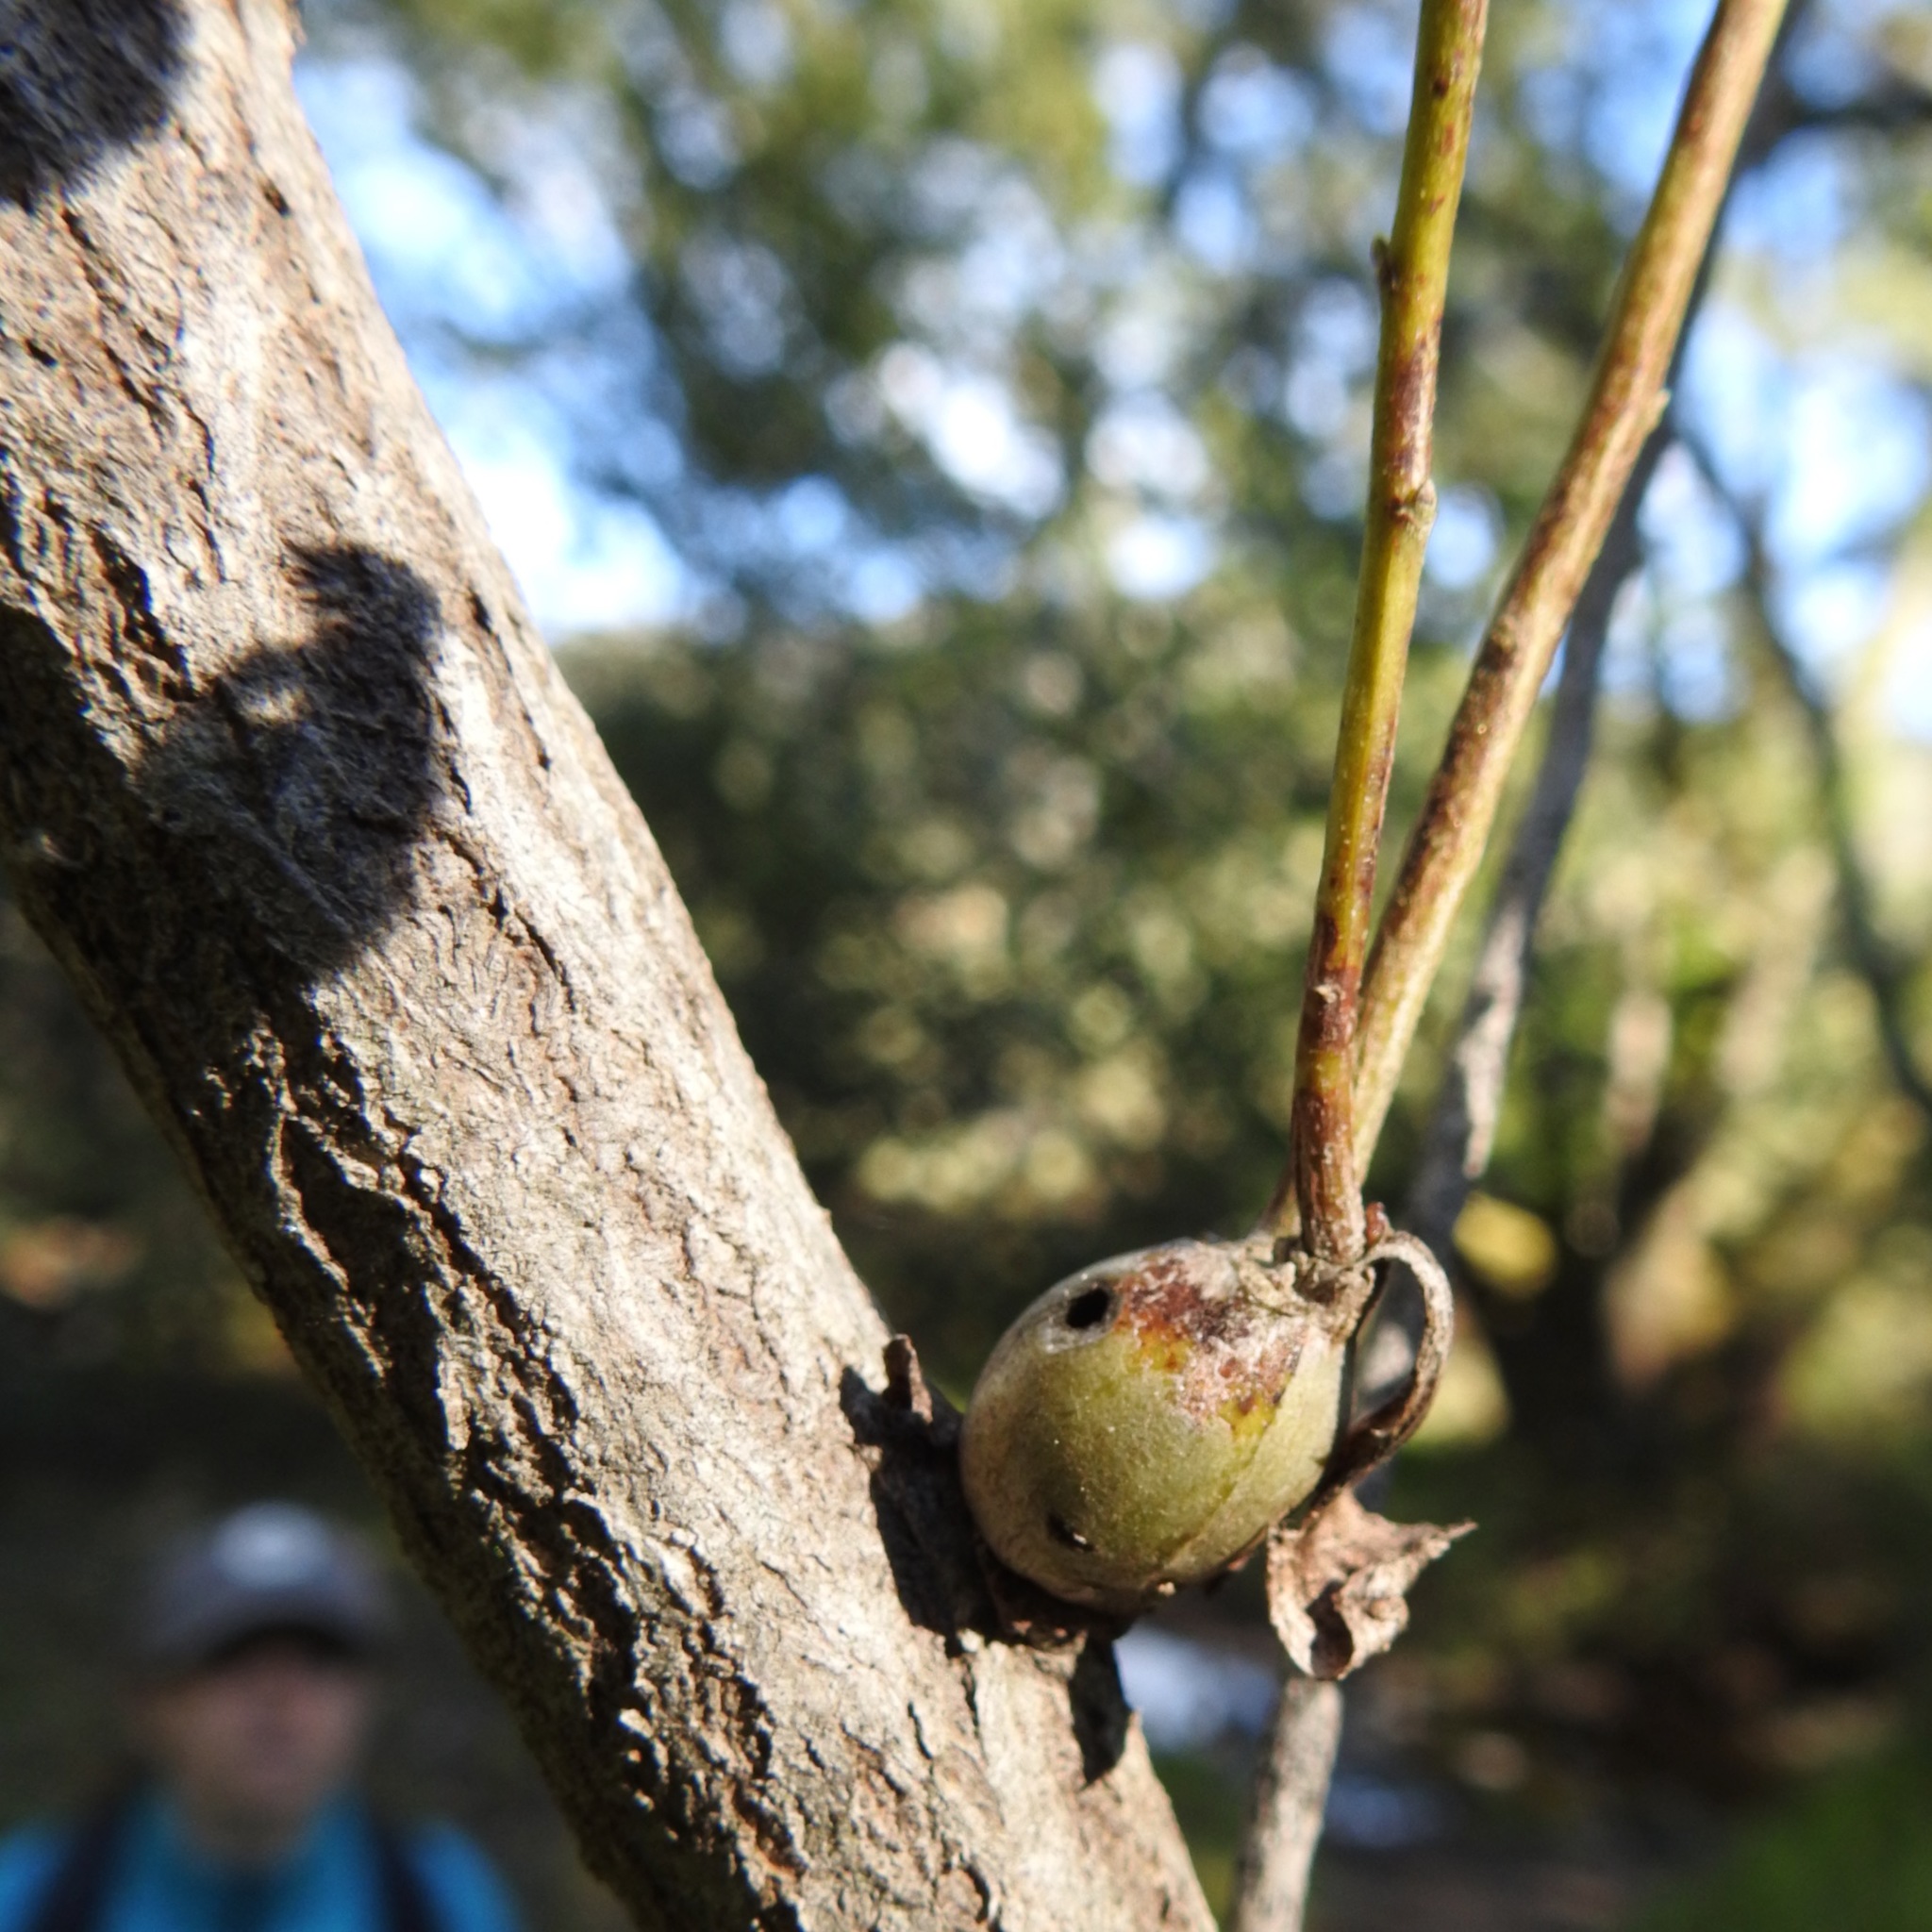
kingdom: Animalia
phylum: Arthropoda
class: Insecta
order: Lepidoptera
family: Gelechiidae
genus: Gnorimoschema
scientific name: Gnorimoschema baccharisella
